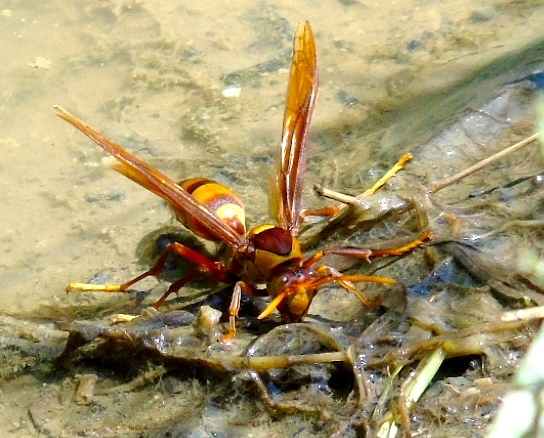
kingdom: Animalia
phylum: Arthropoda
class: Insecta
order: Hymenoptera
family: Eumenidae
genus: Polistes
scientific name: Polistes carnifex
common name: Paper wasp
